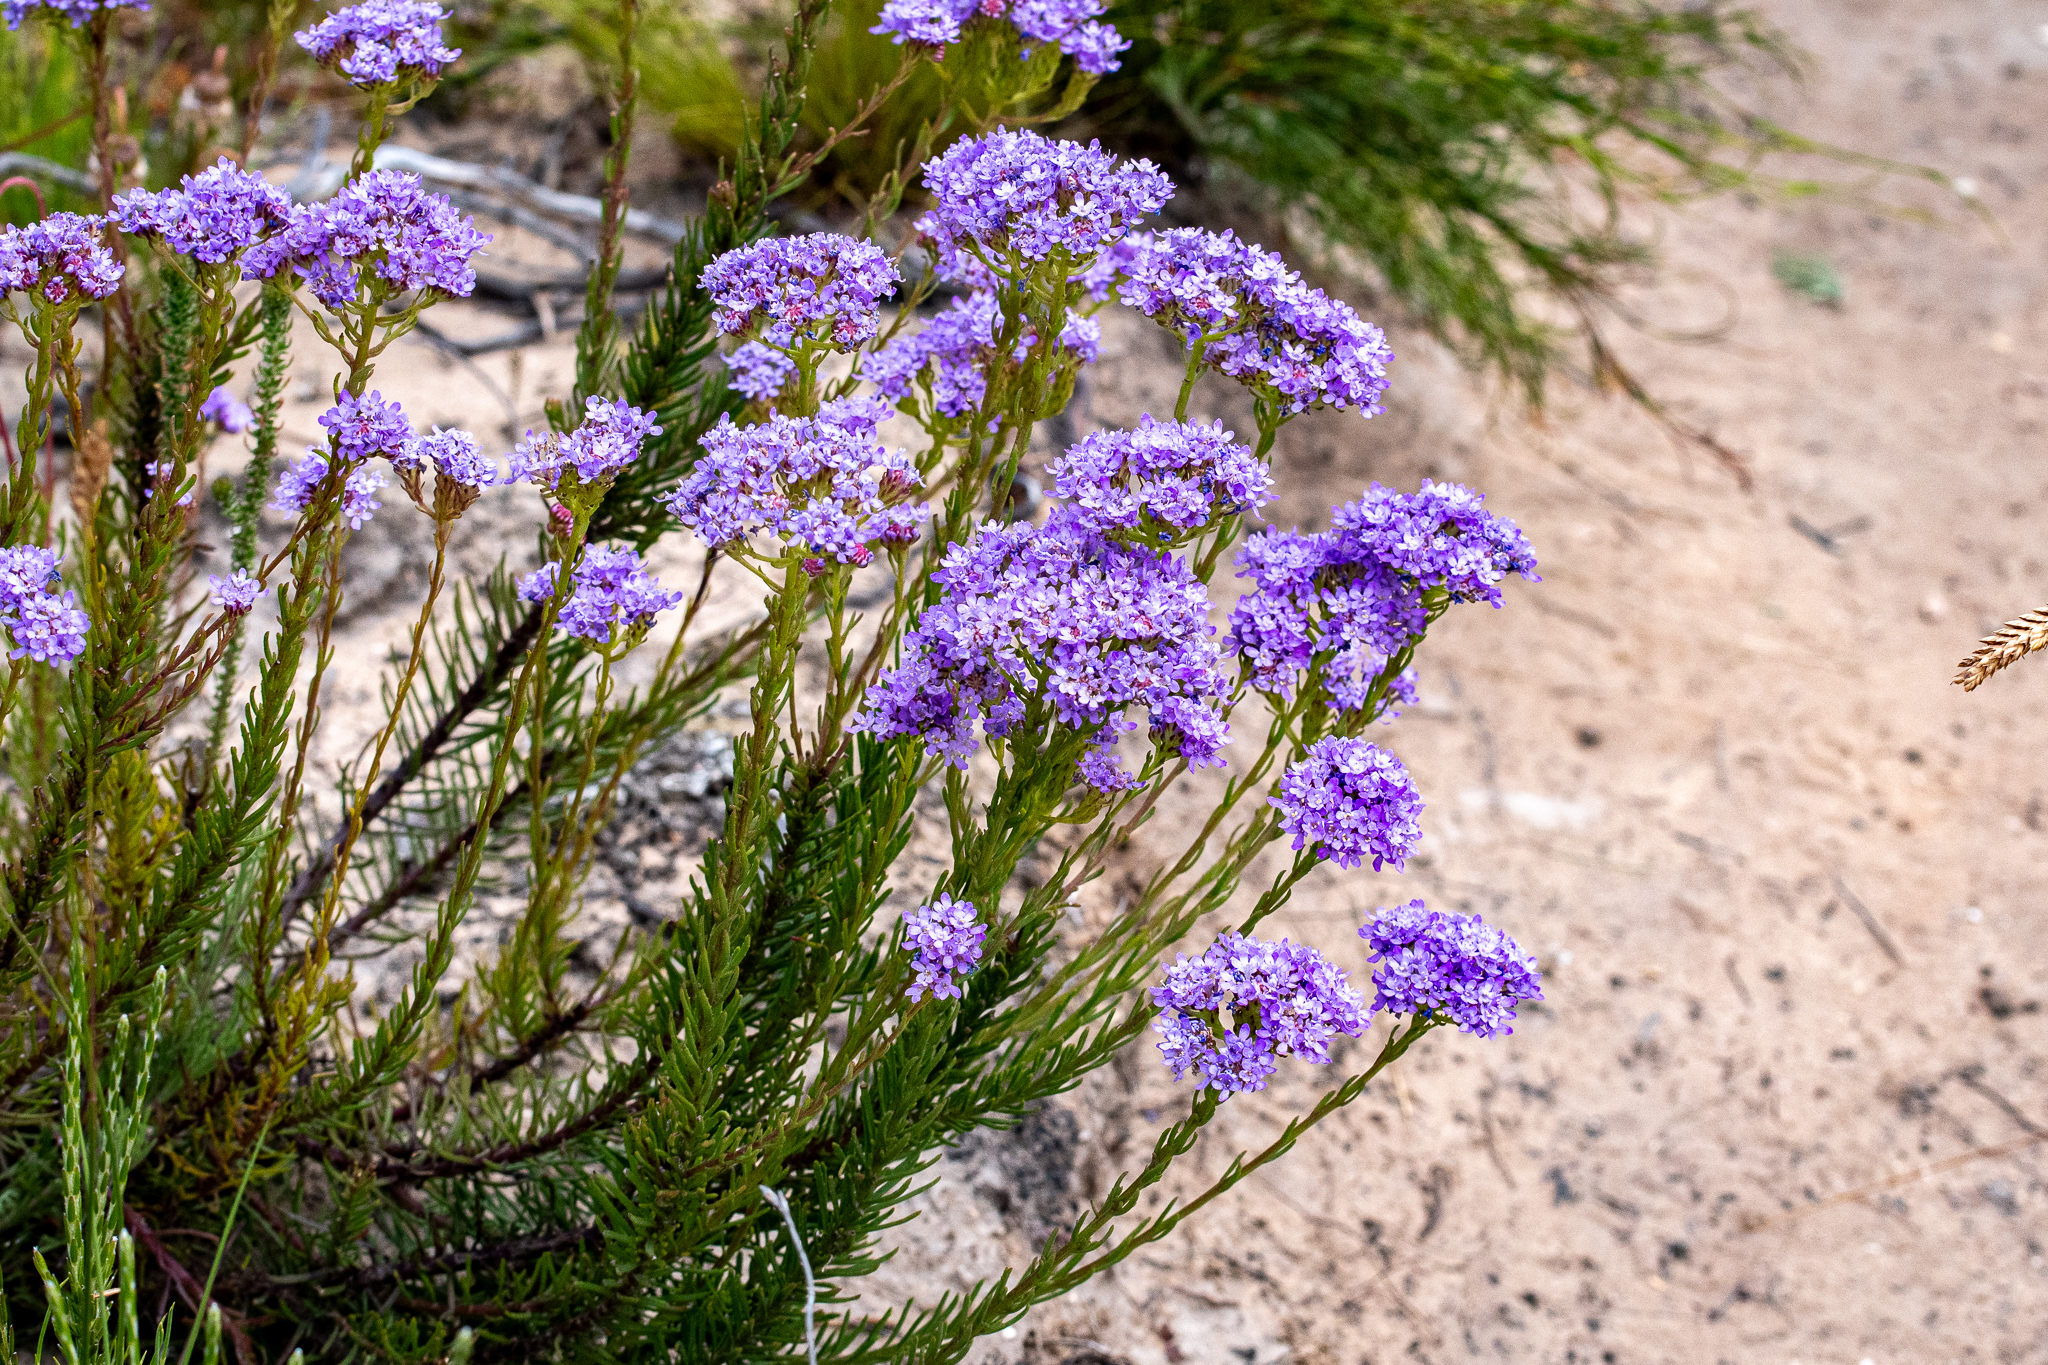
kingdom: Plantae
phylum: Tracheophyta
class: Magnoliopsida
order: Lamiales
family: Scrophulariaceae
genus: Pseudoselago
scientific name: Pseudoselago spuria
